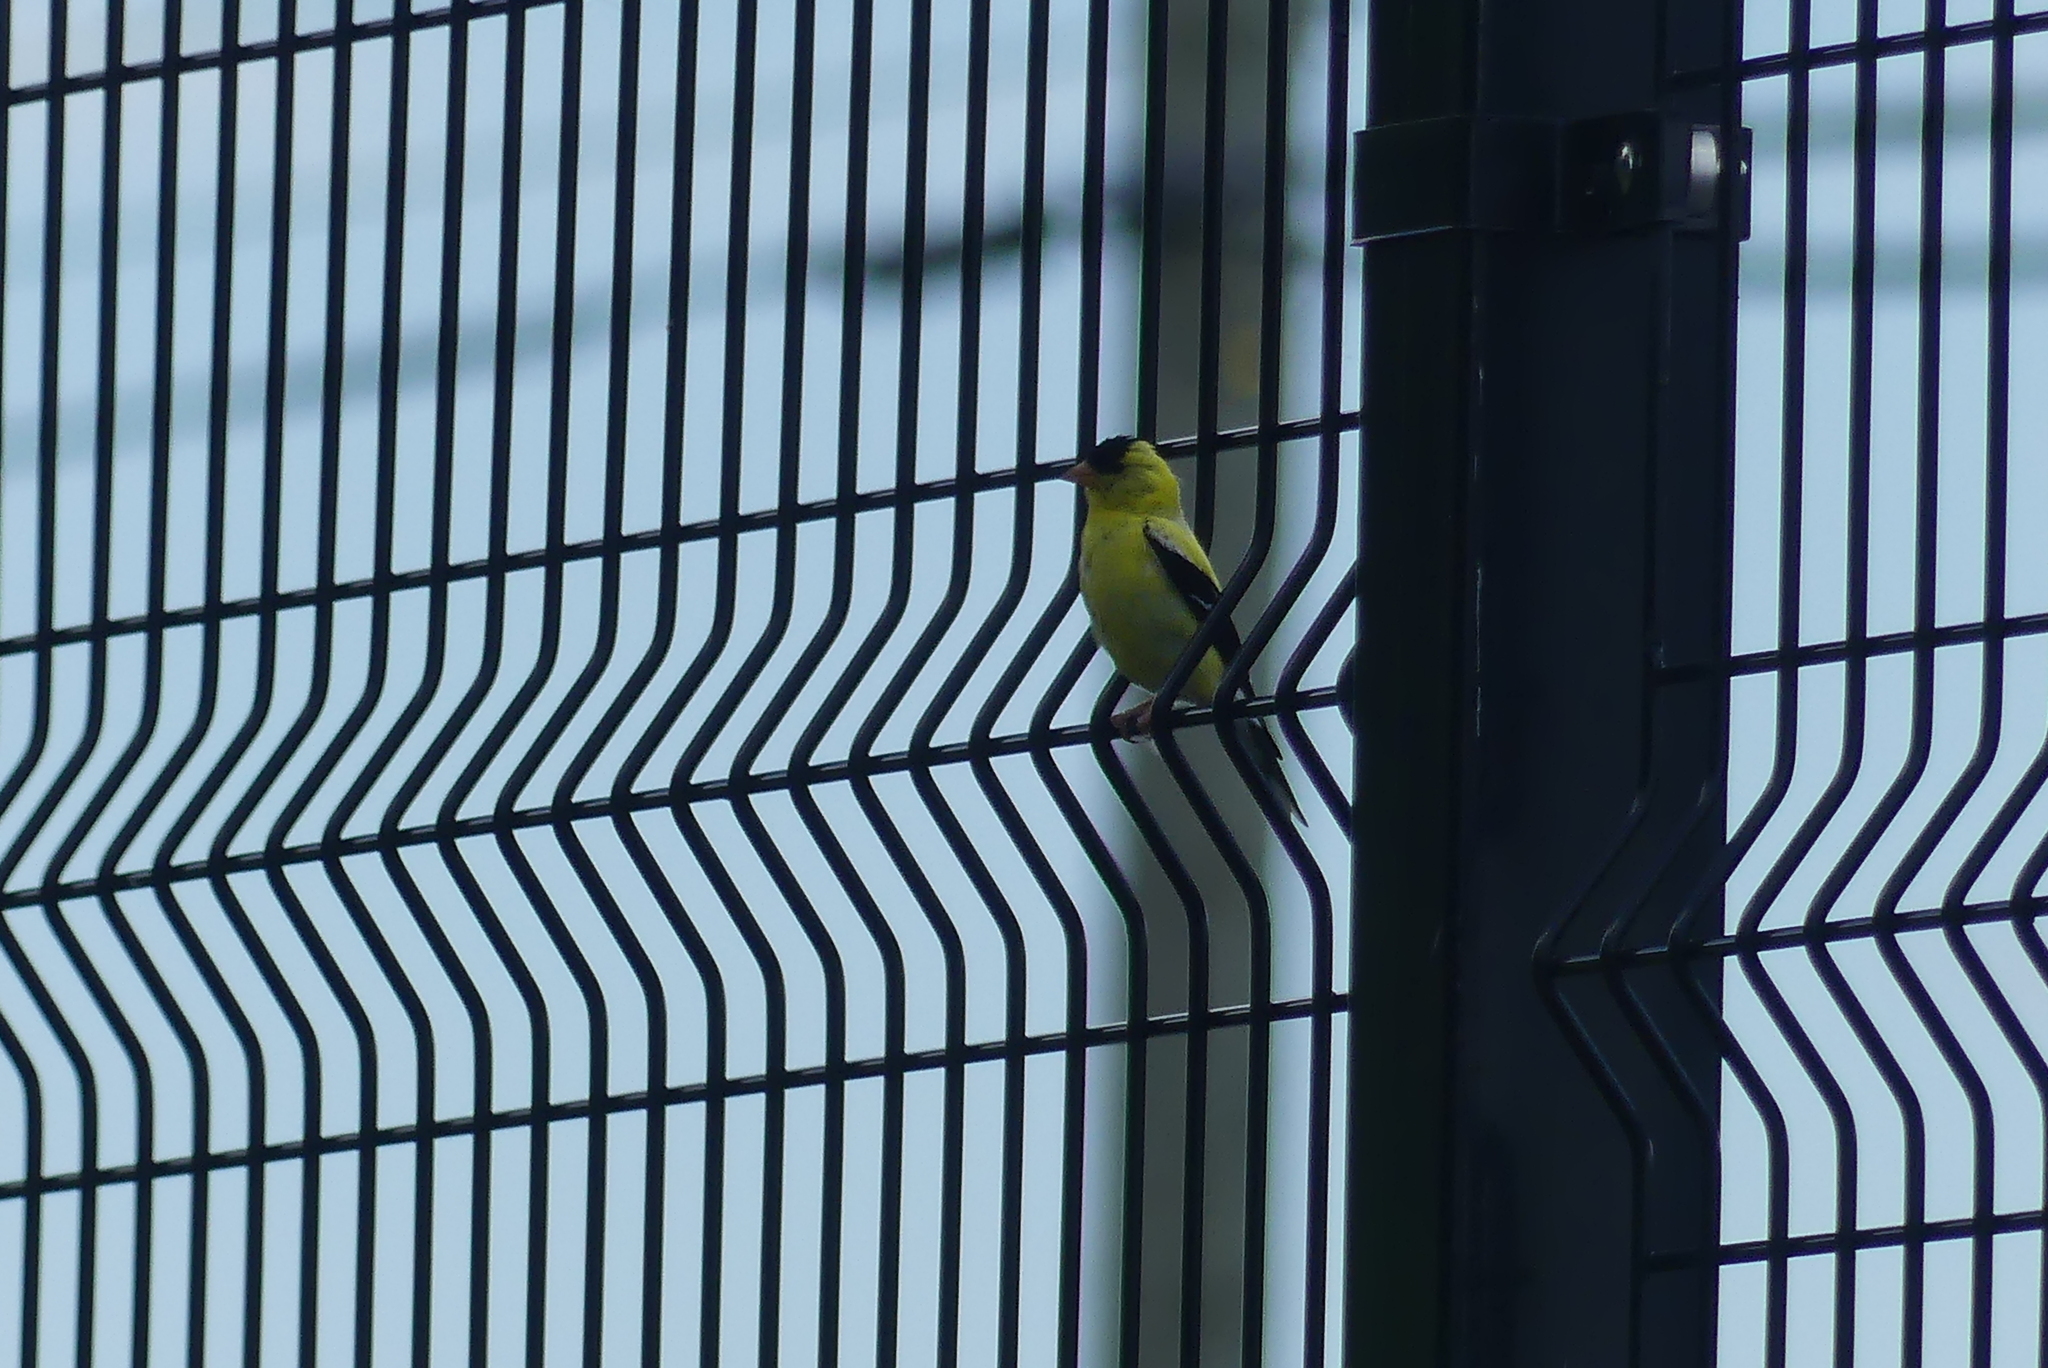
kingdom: Animalia
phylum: Chordata
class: Aves
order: Passeriformes
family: Fringillidae
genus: Spinus
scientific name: Spinus tristis
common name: American goldfinch
